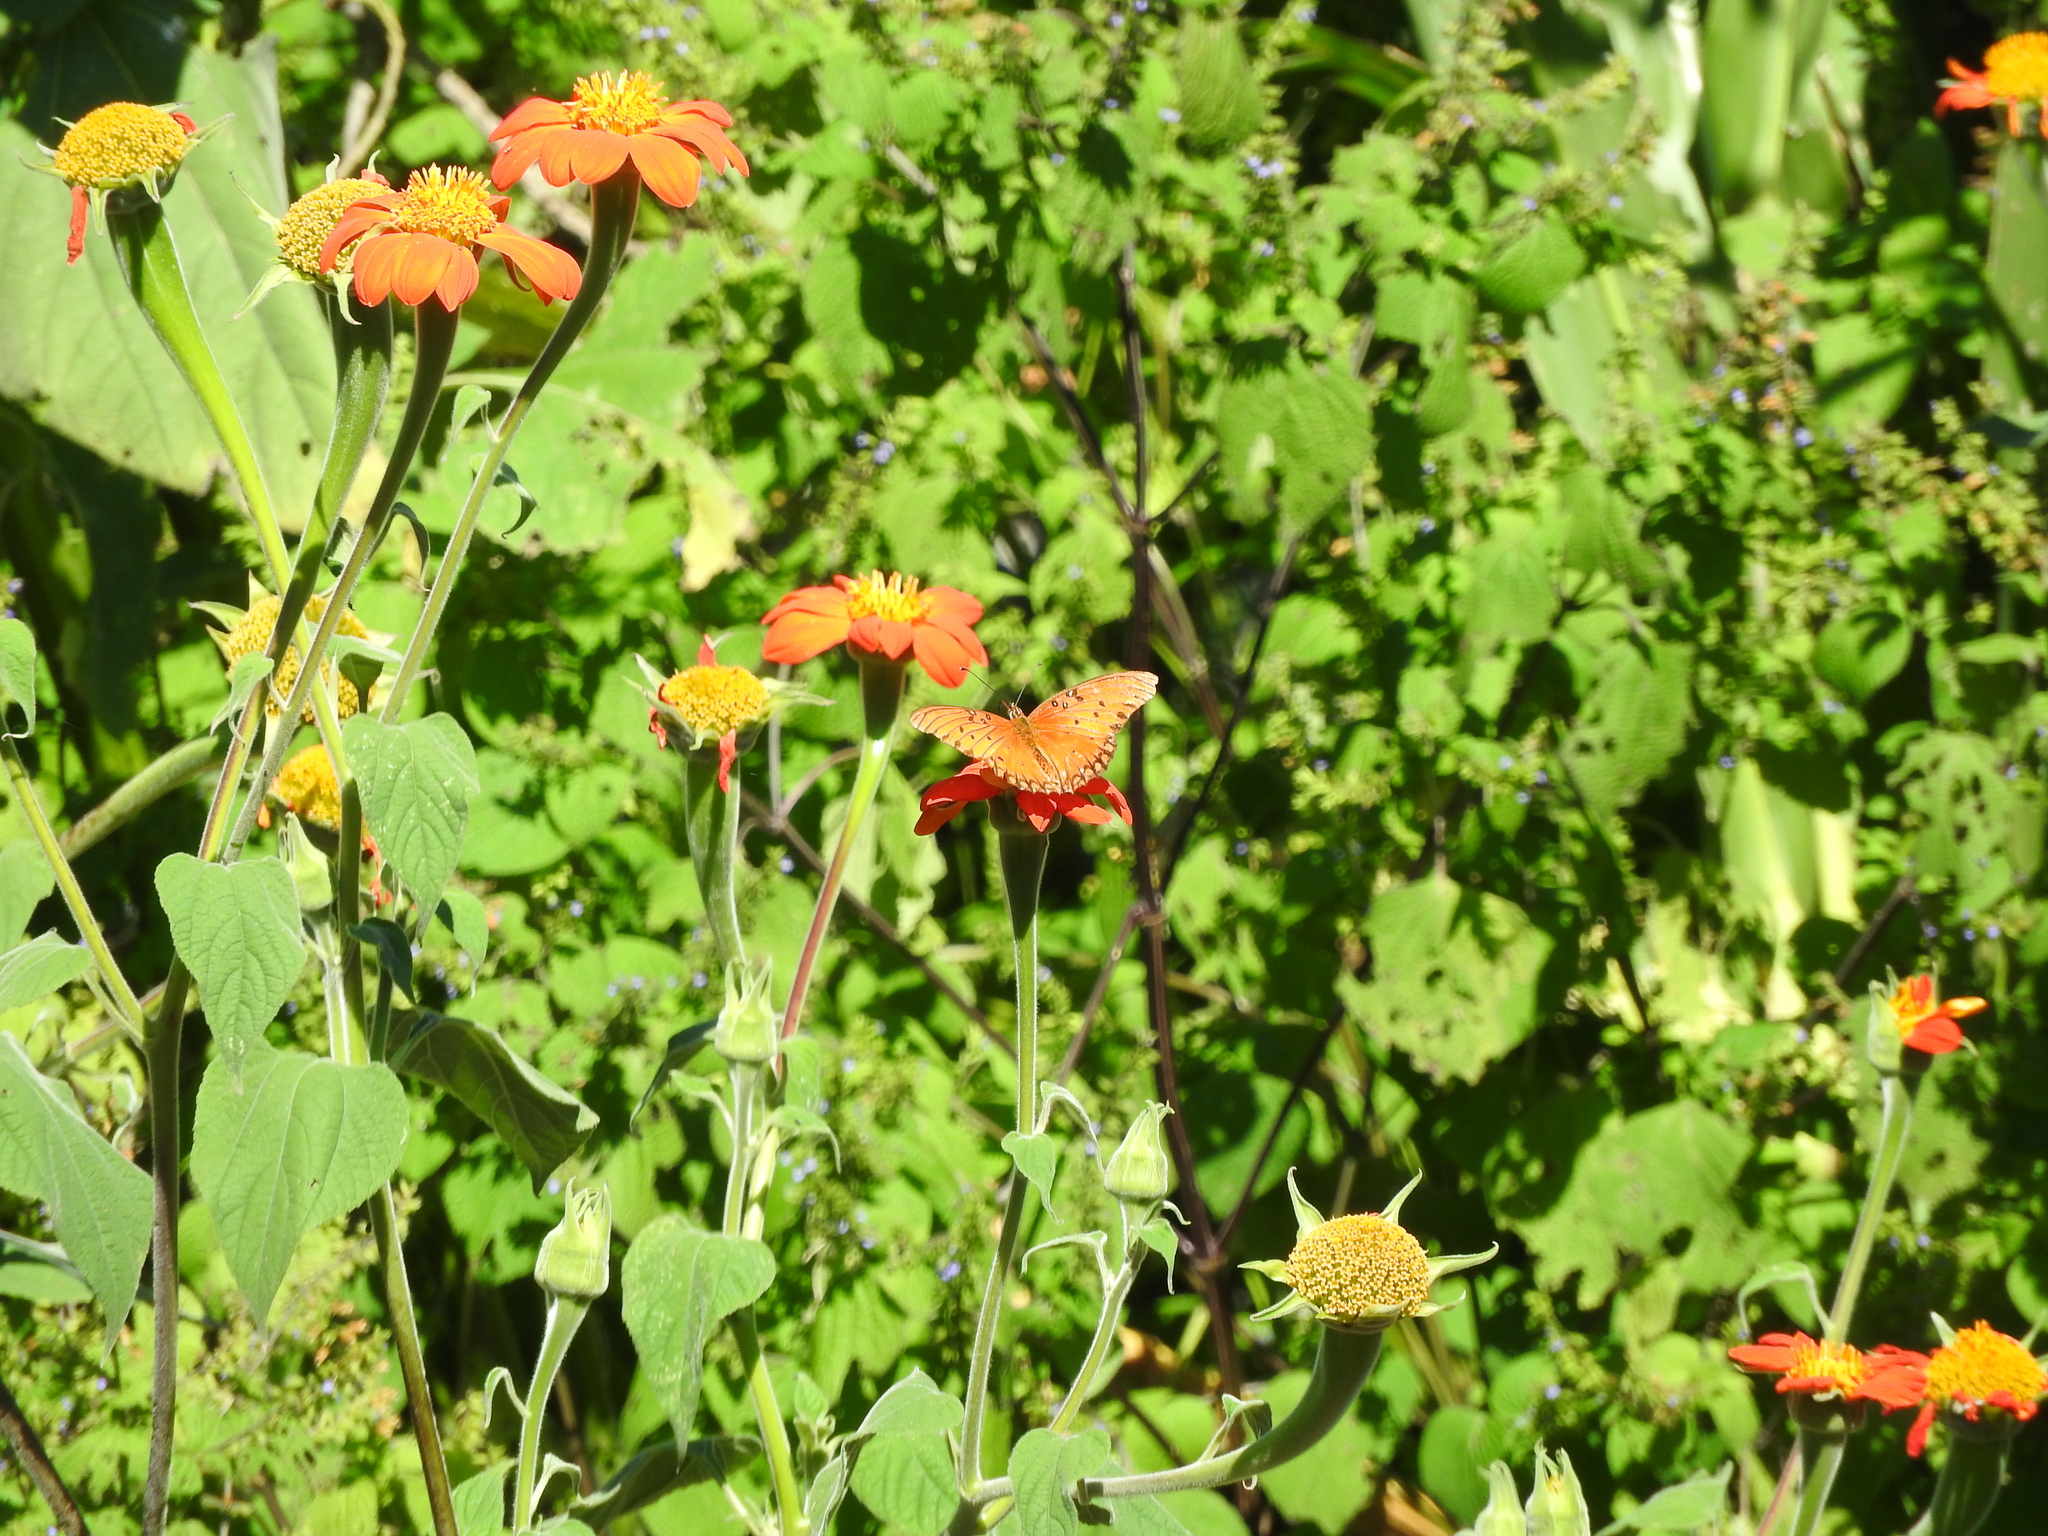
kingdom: Animalia
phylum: Arthropoda
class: Insecta
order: Lepidoptera
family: Nymphalidae
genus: Dione
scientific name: Dione vanillae
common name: Gulf fritillary
